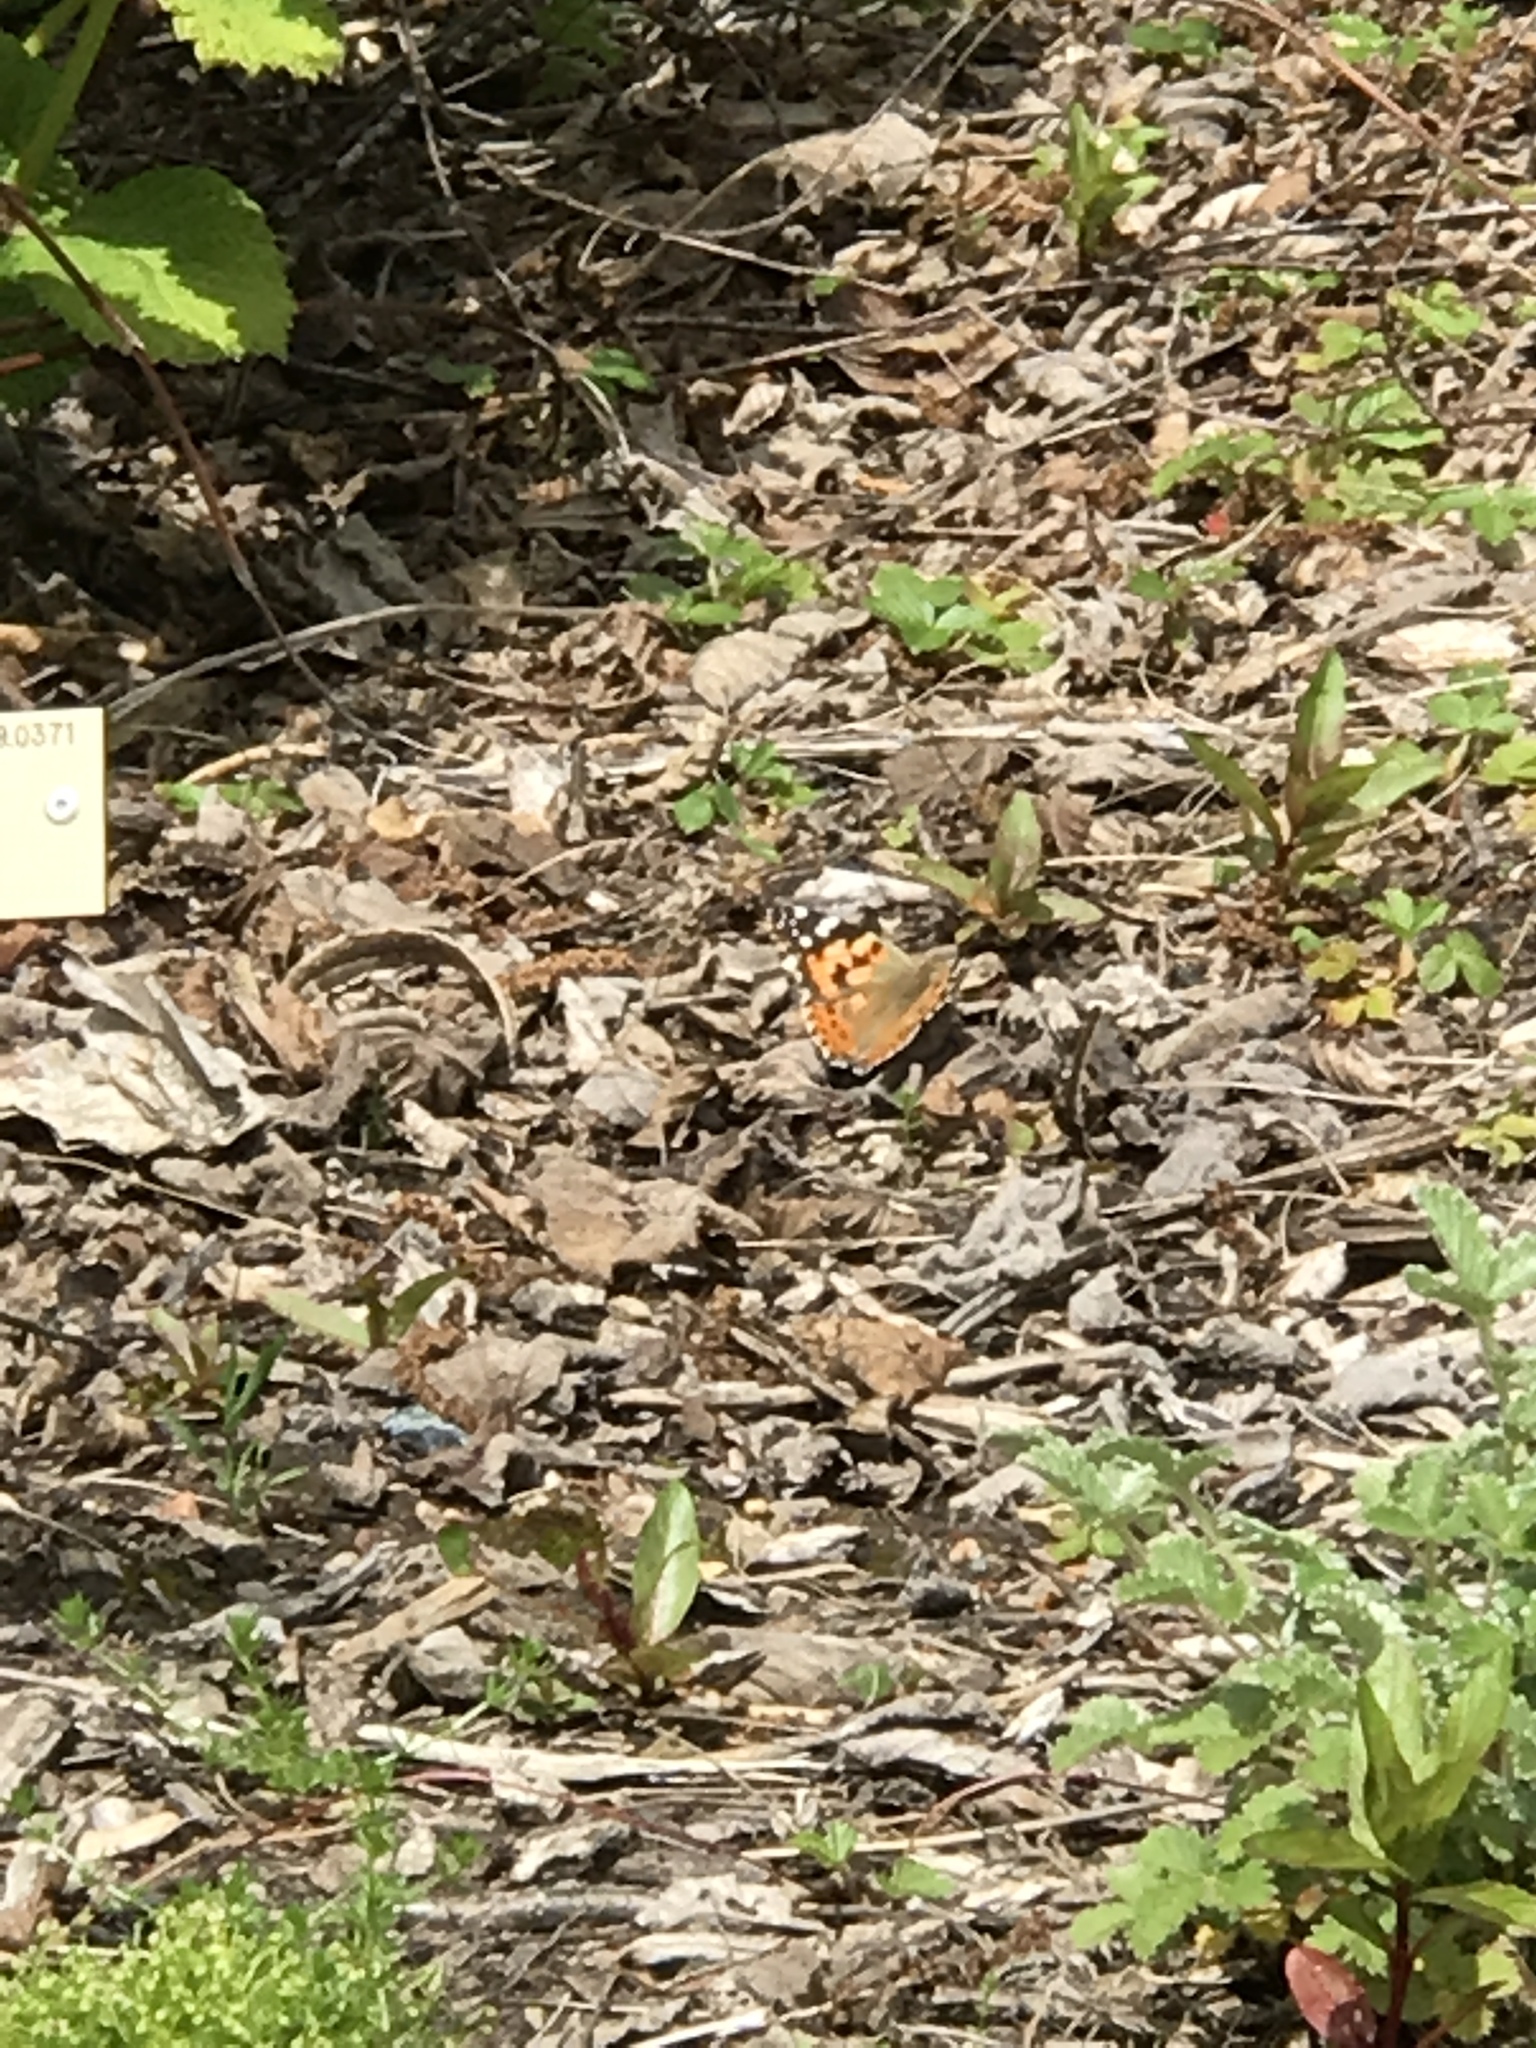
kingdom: Animalia
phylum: Arthropoda
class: Insecta
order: Lepidoptera
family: Nymphalidae
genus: Vanessa
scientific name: Vanessa cardui
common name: Painted lady
